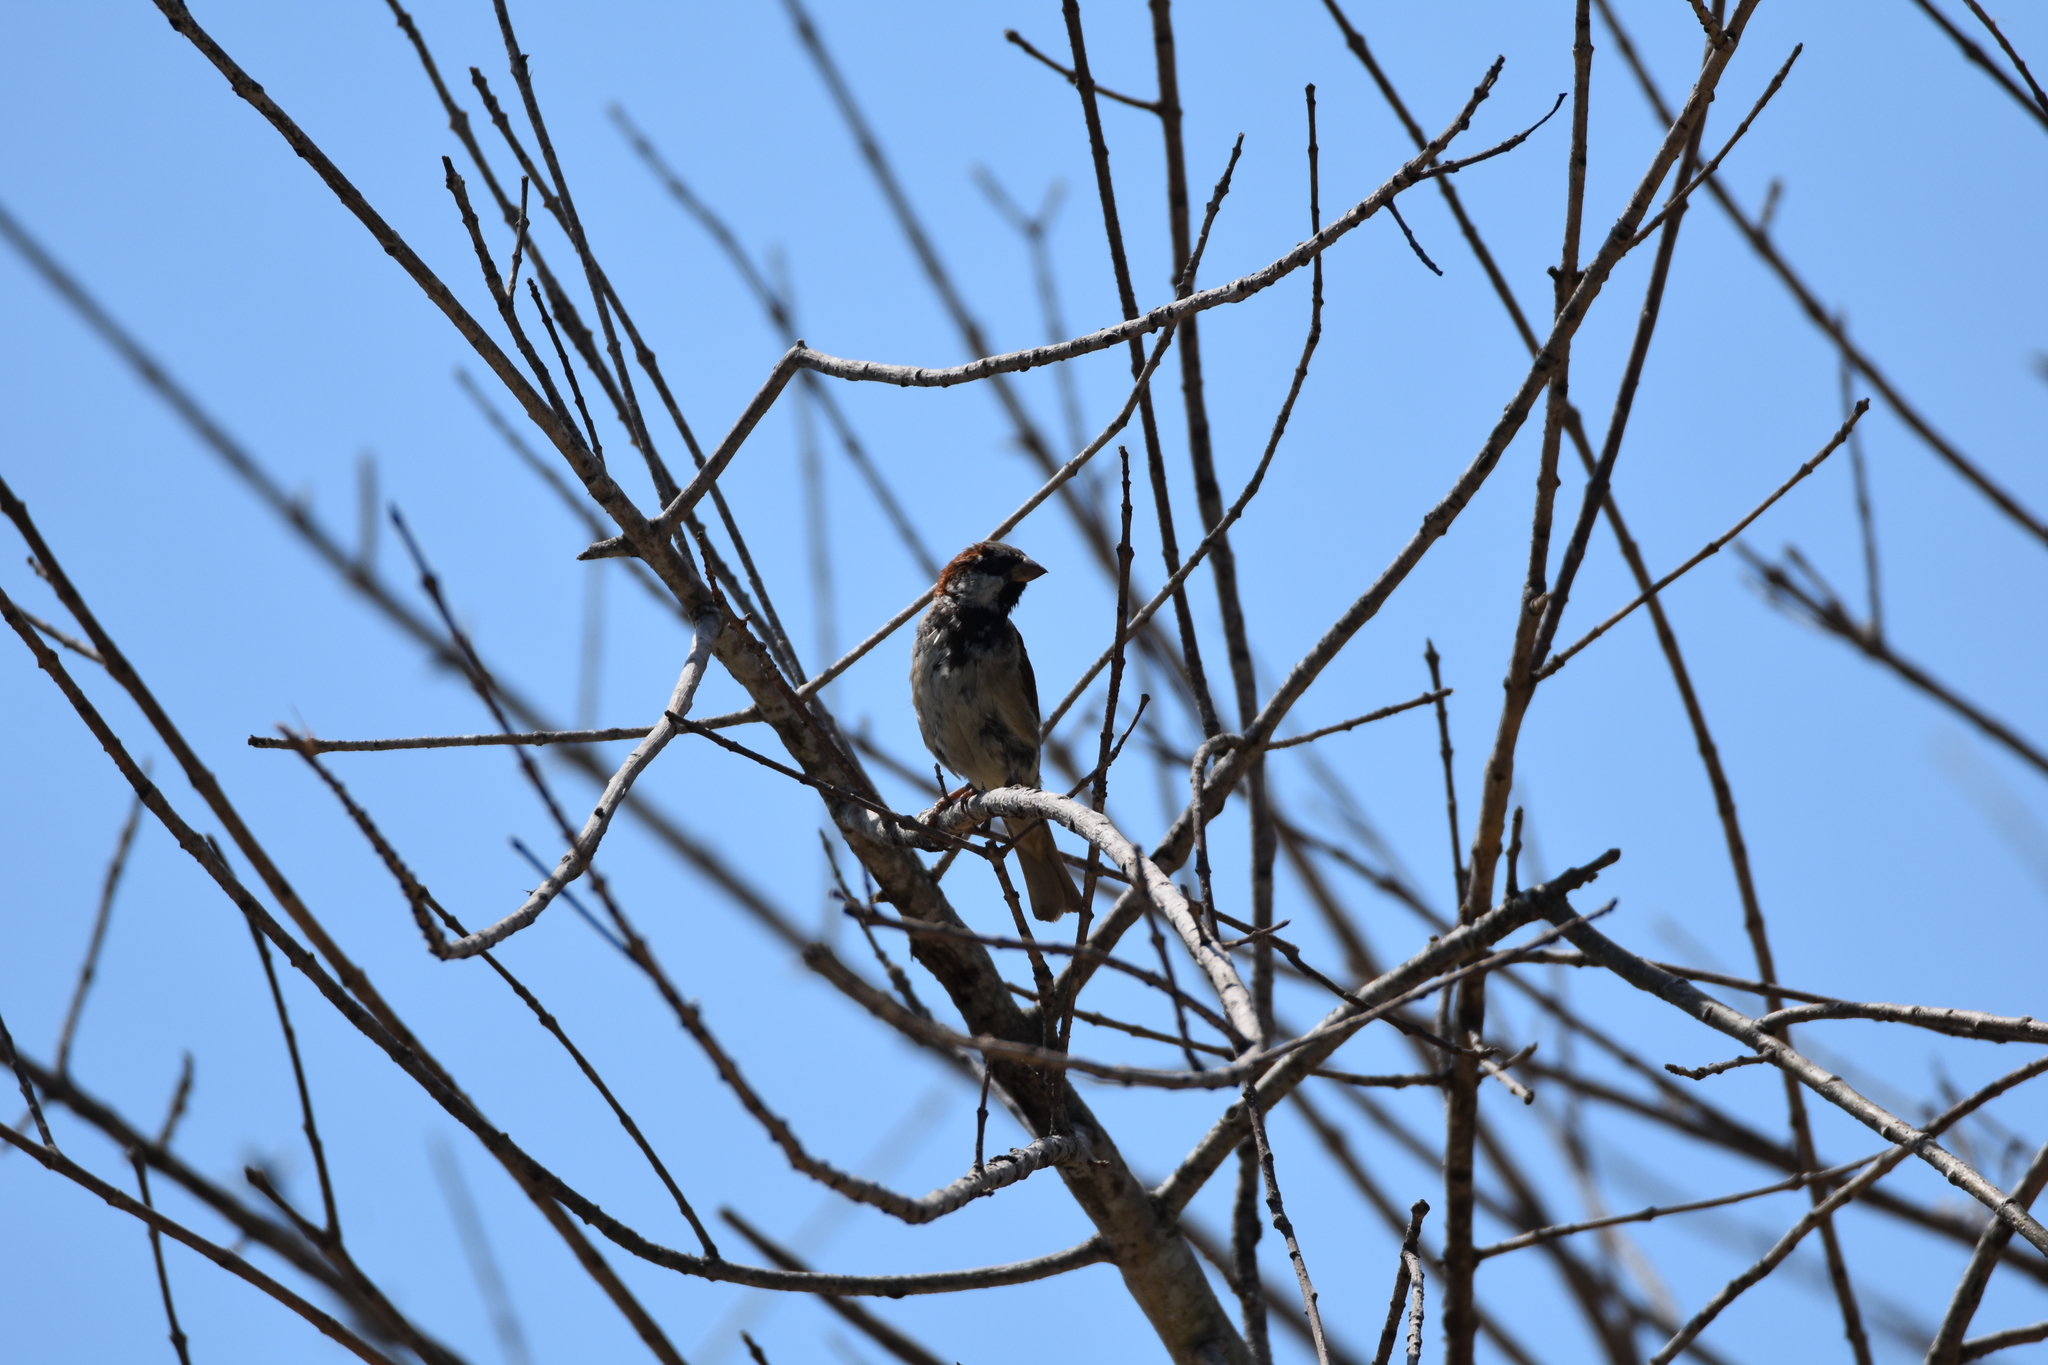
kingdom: Animalia
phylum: Chordata
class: Aves
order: Passeriformes
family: Passeridae
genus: Passer
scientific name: Passer domesticus
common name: House sparrow
